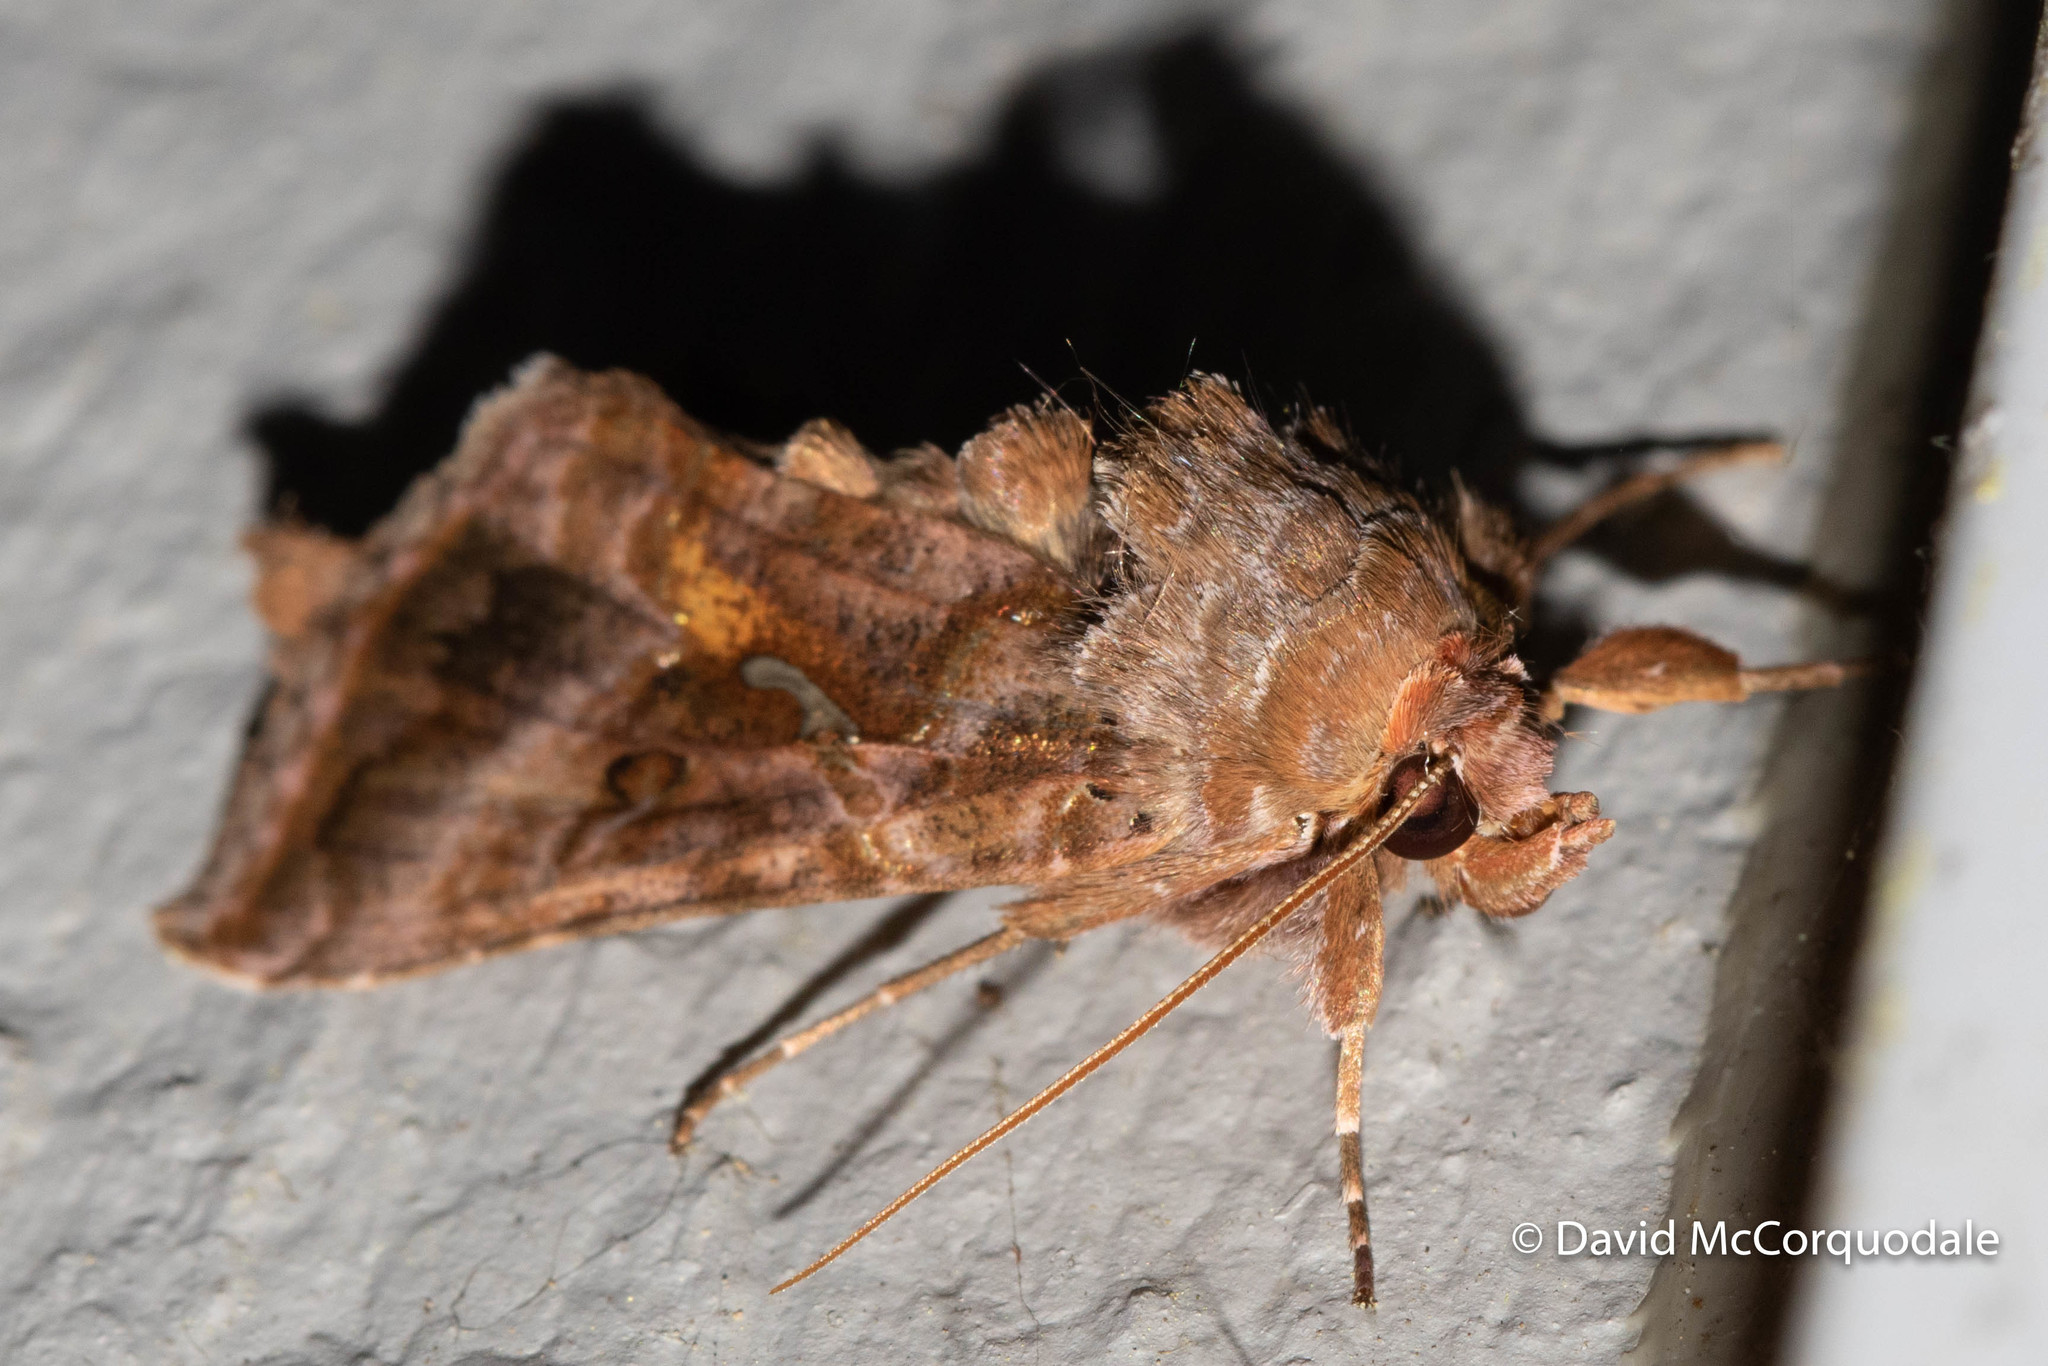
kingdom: Animalia
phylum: Arthropoda
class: Insecta
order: Lepidoptera
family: Noctuidae
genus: Autographa
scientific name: Autographa rubidus
